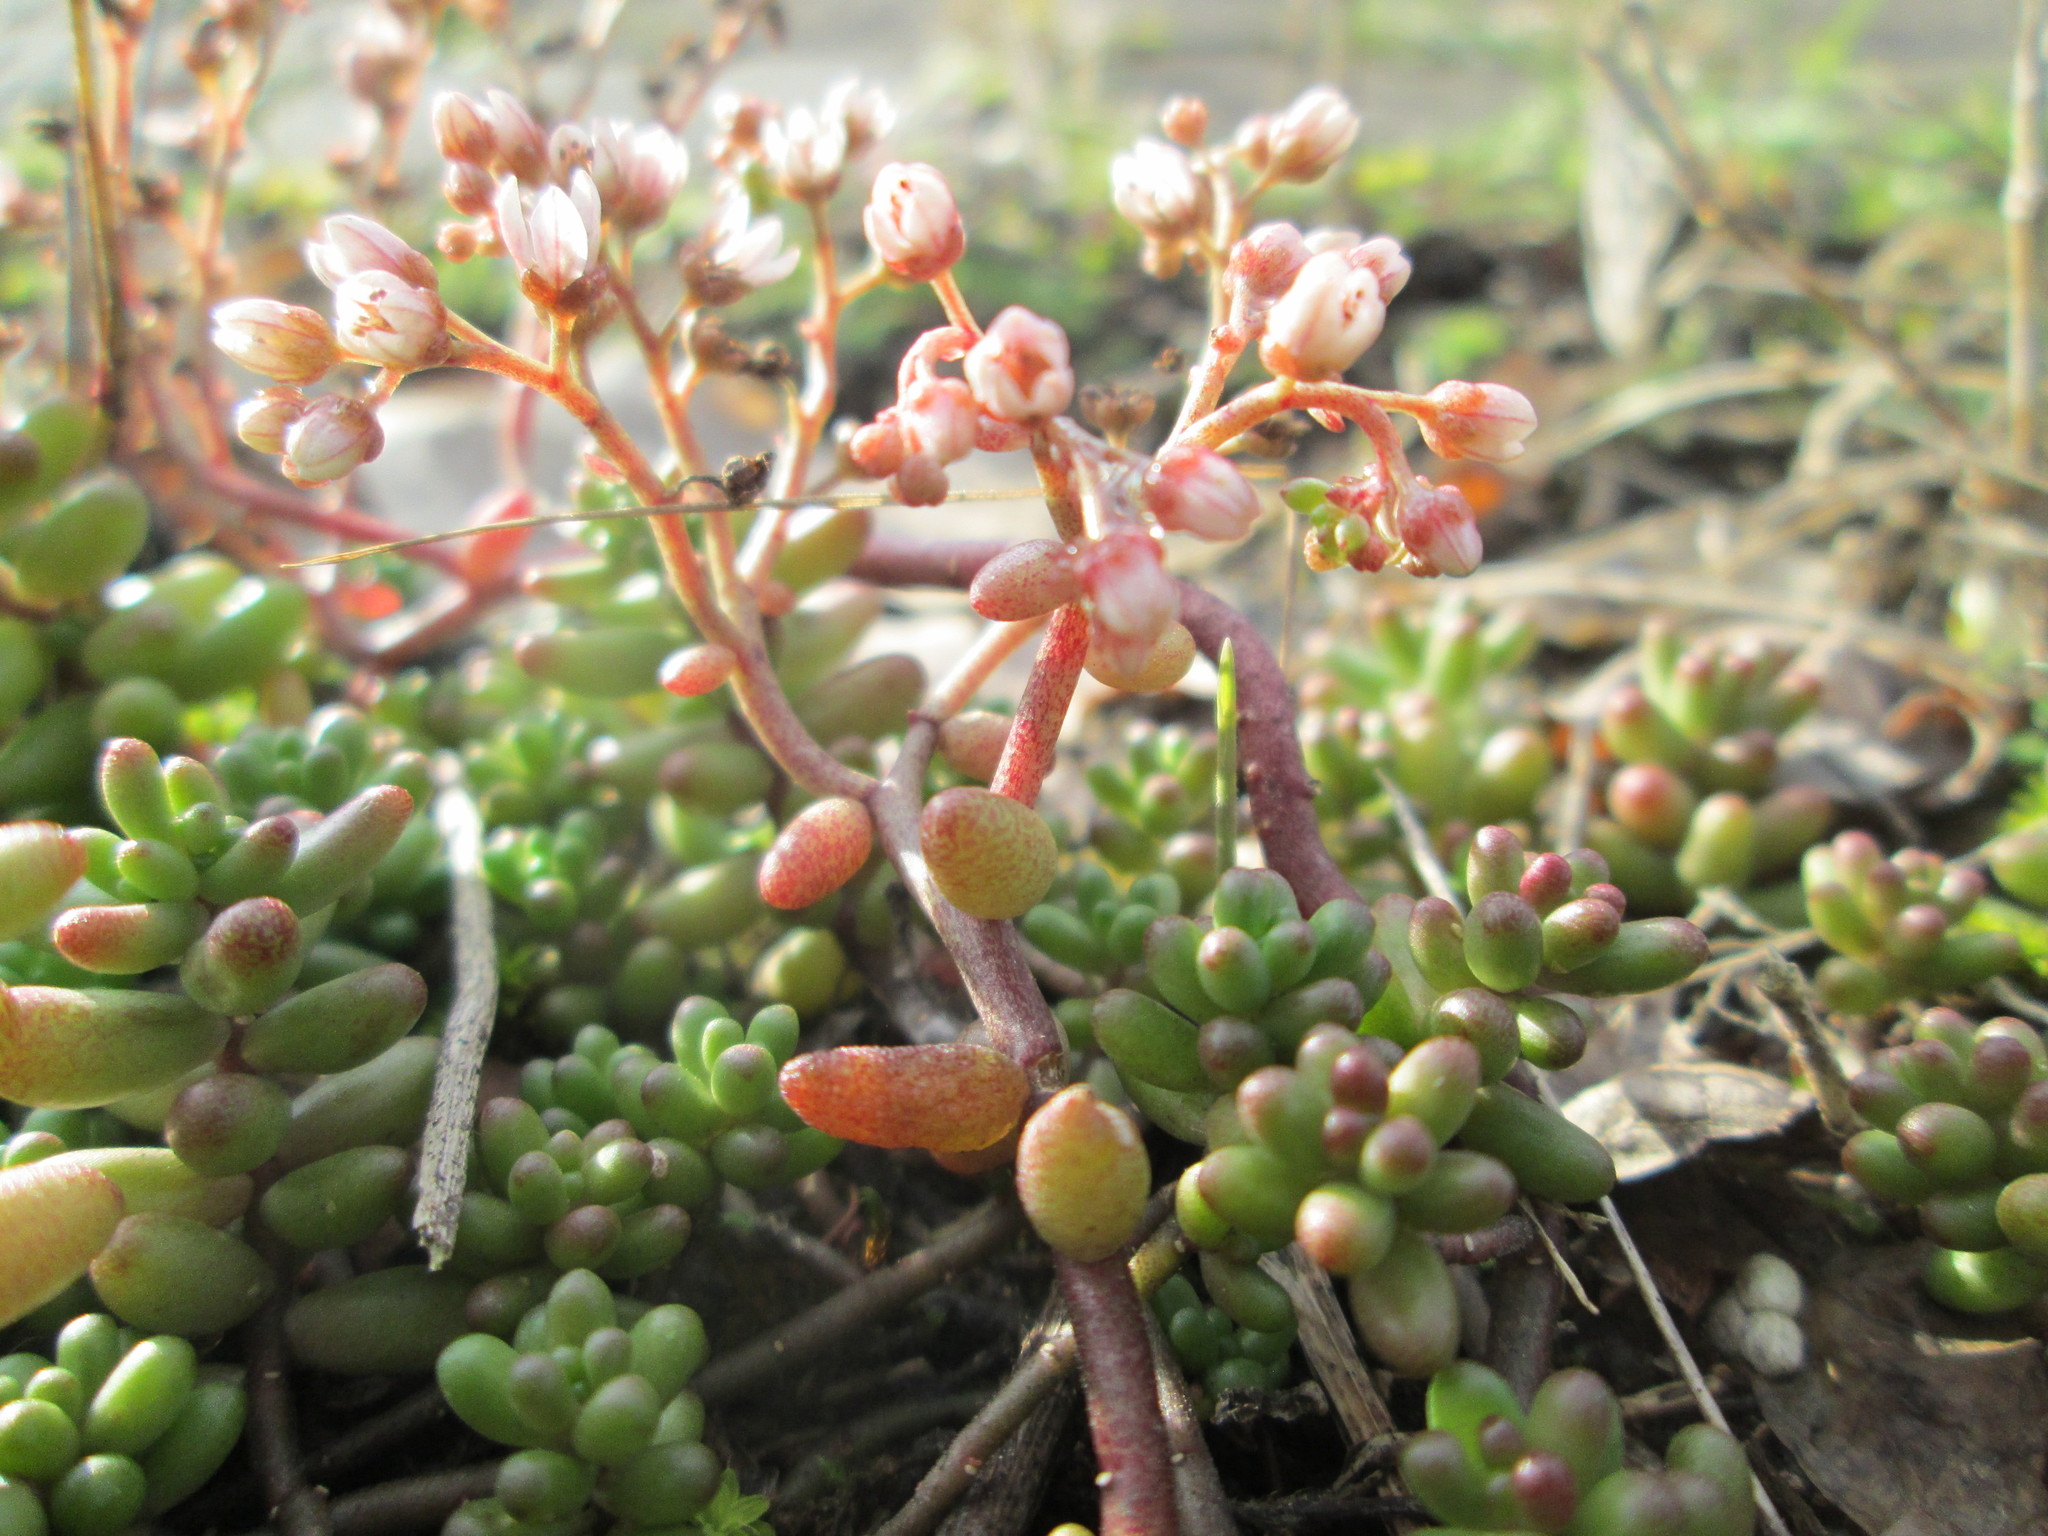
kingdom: Plantae
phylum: Tracheophyta
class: Magnoliopsida
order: Saxifragales
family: Crassulaceae
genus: Sedum
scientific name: Sedum album
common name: White stonecrop
